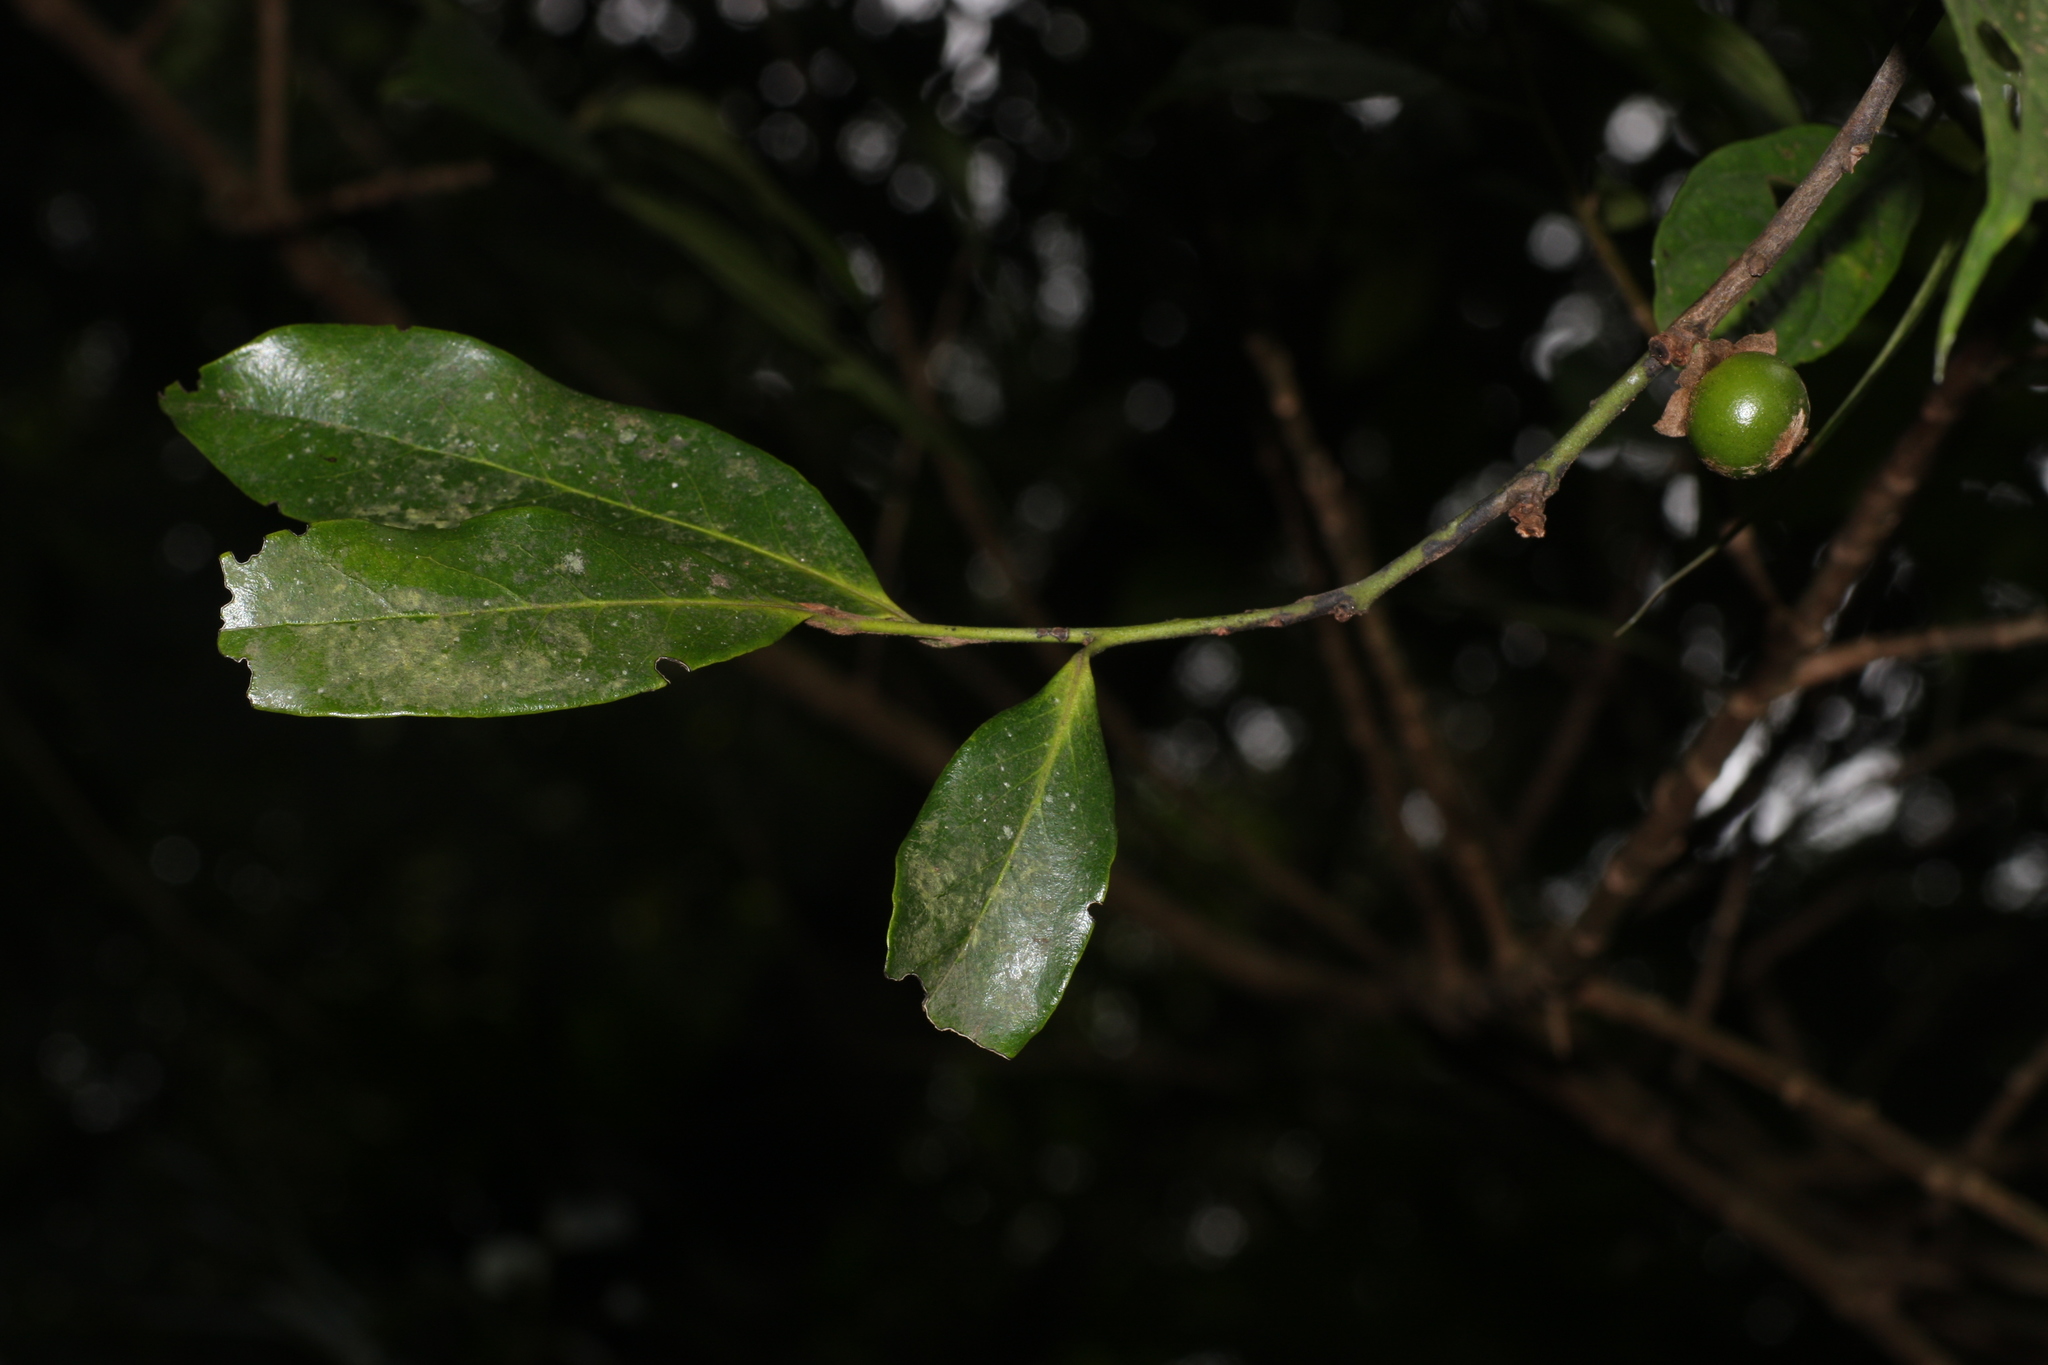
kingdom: Plantae
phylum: Tracheophyta
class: Magnoliopsida
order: Ericales
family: Ebenaceae
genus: Diospyros
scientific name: Diospyros nilagirica
